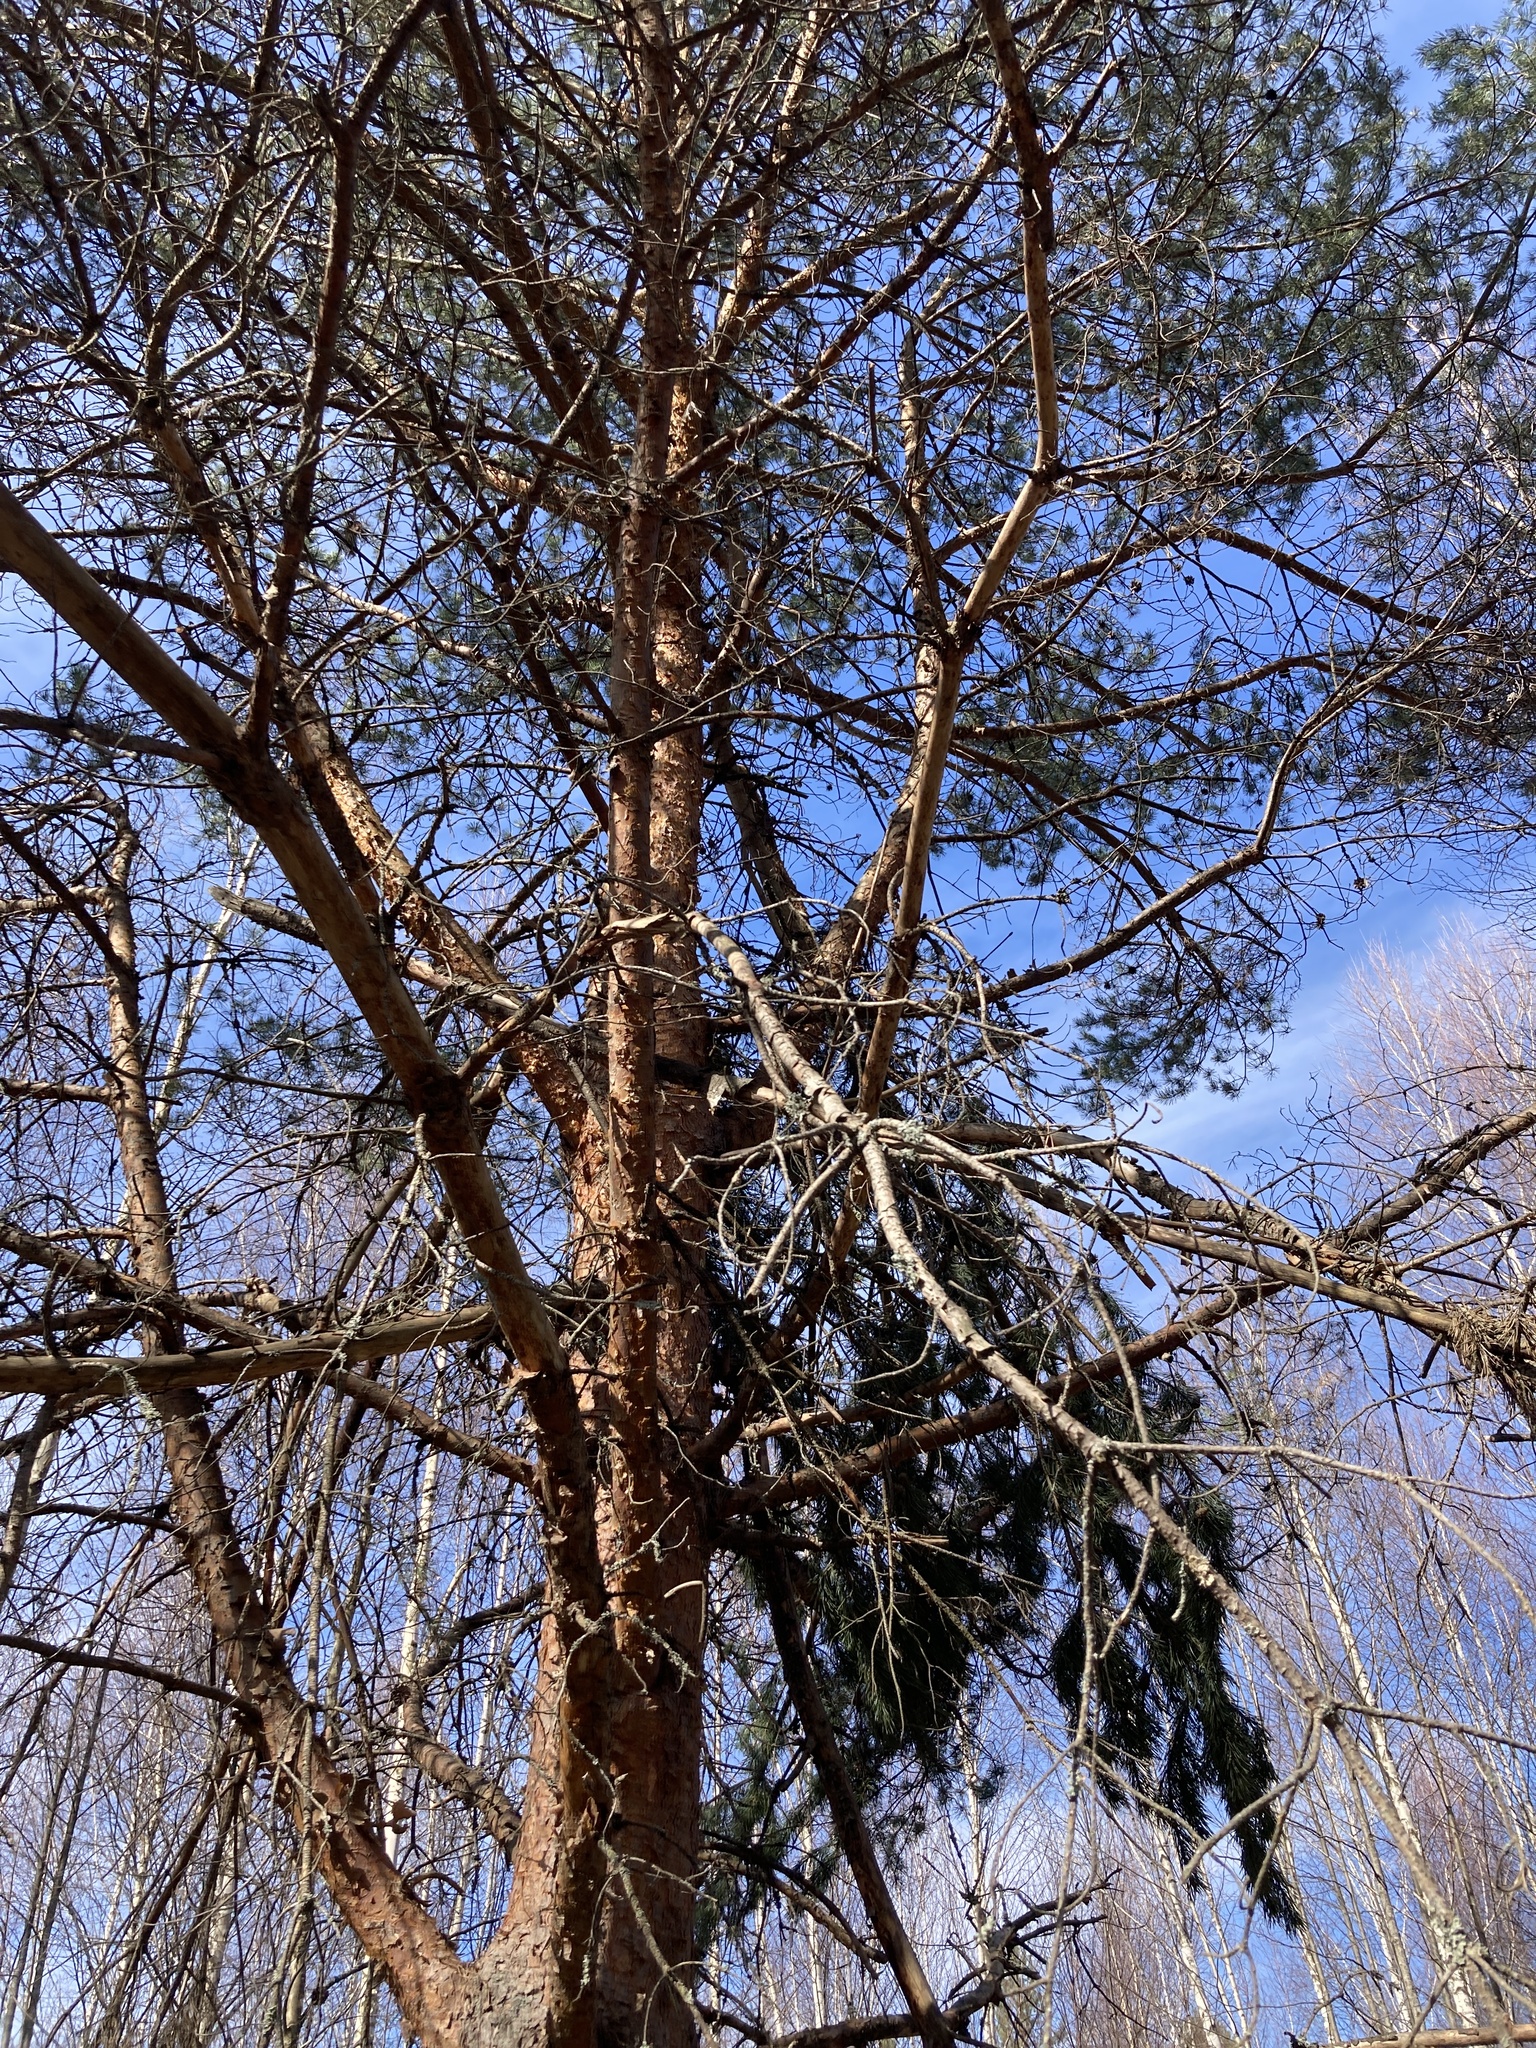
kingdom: Plantae
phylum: Tracheophyta
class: Pinopsida
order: Pinales
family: Pinaceae
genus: Pinus
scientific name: Pinus sylvestris
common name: Scots pine
